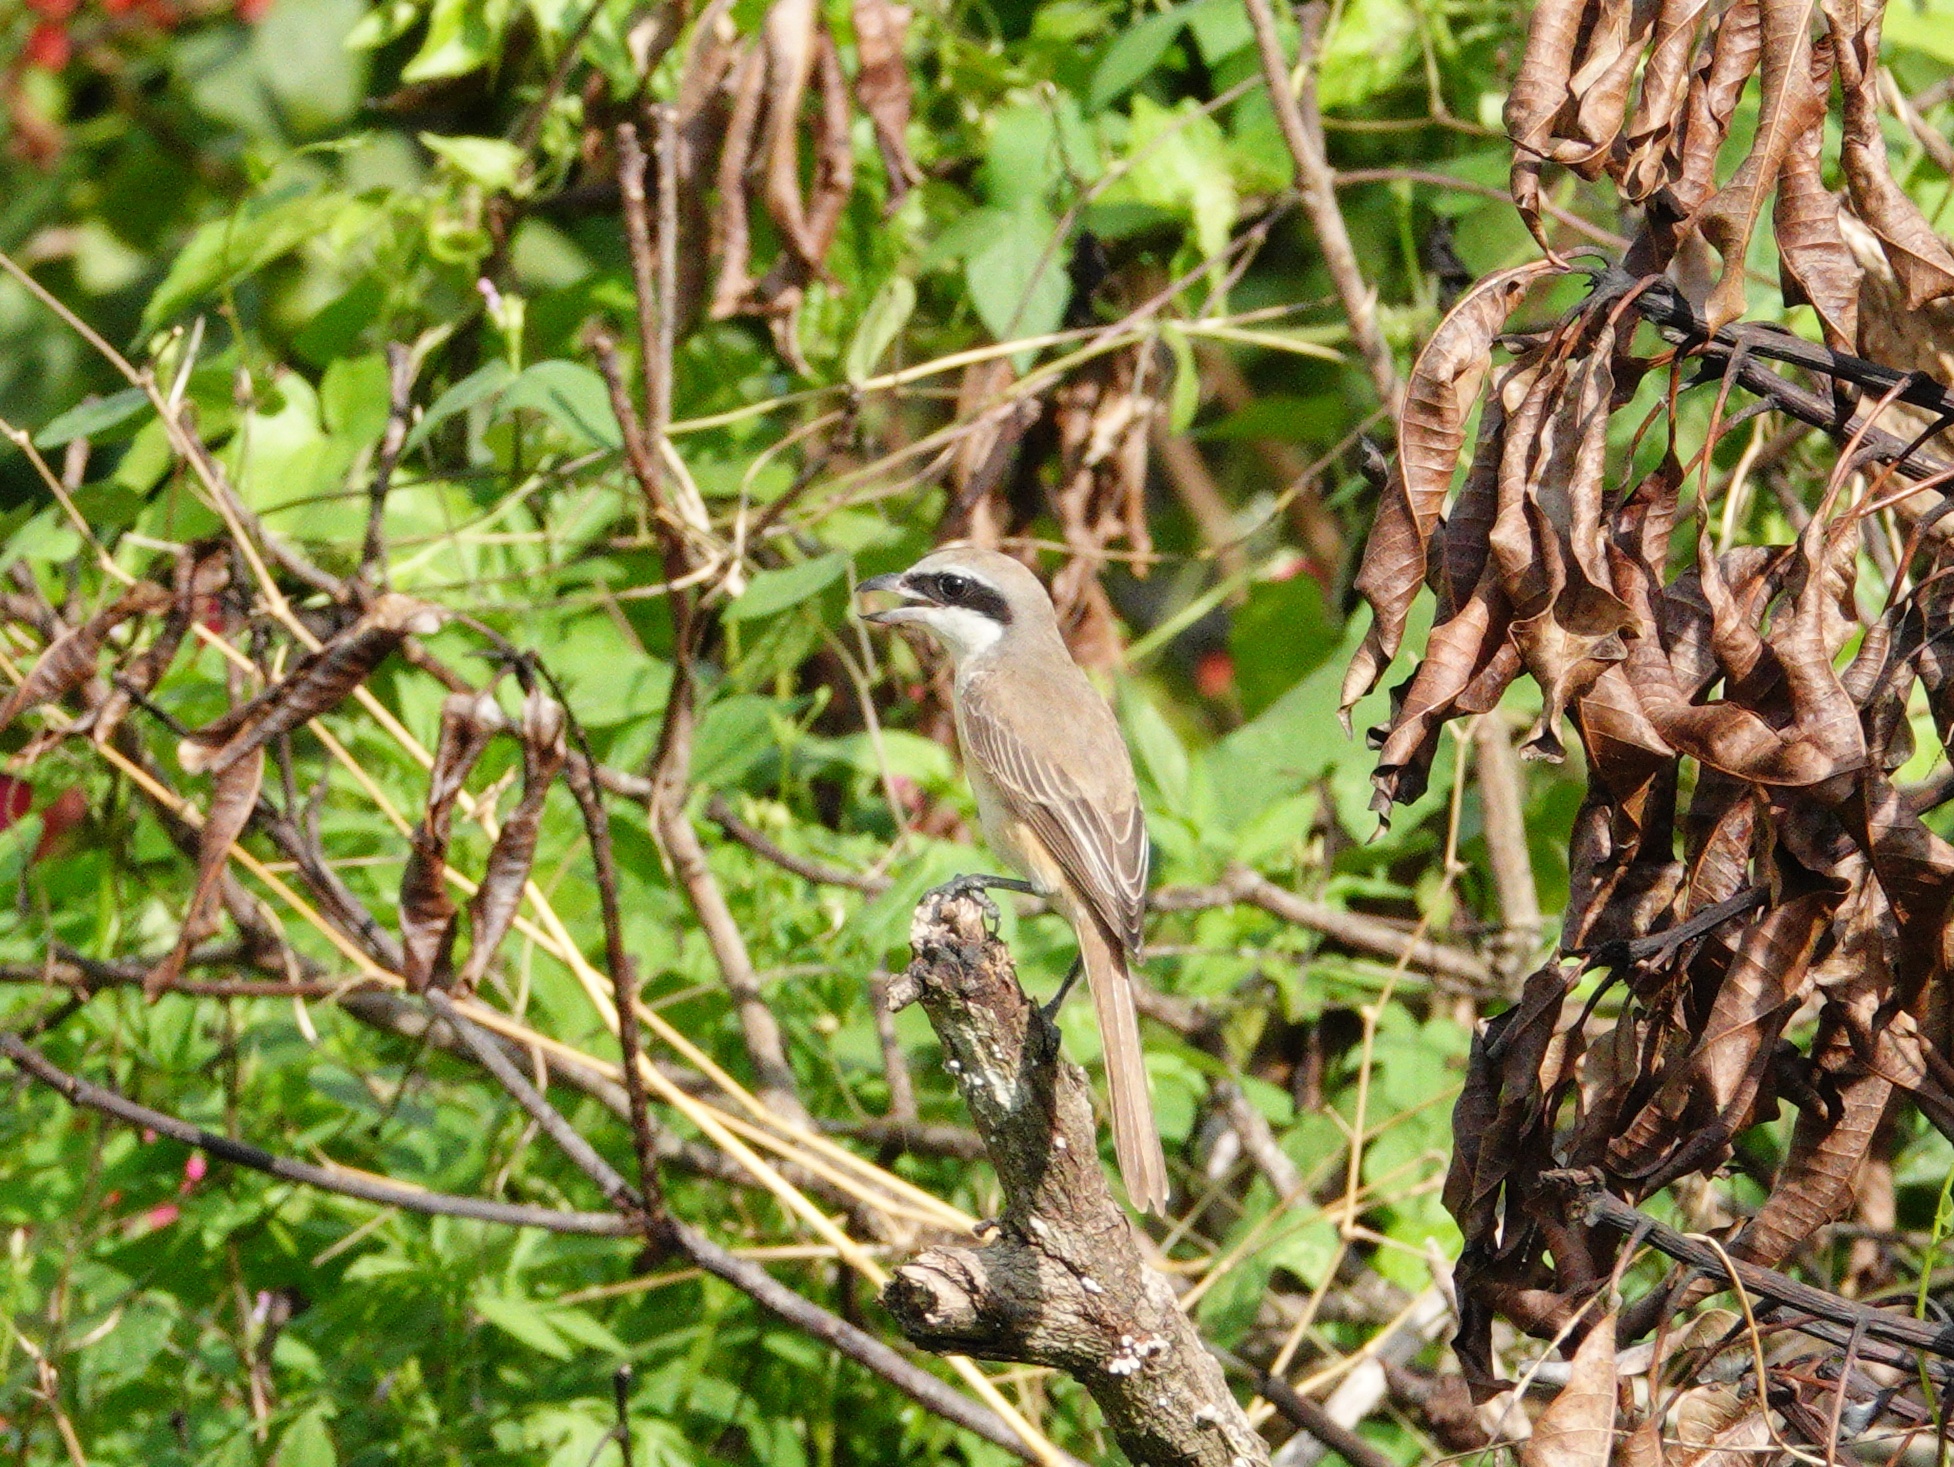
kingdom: Animalia
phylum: Chordata
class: Aves
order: Passeriformes
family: Laniidae
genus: Lanius
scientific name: Lanius cristatus
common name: Brown shrike
